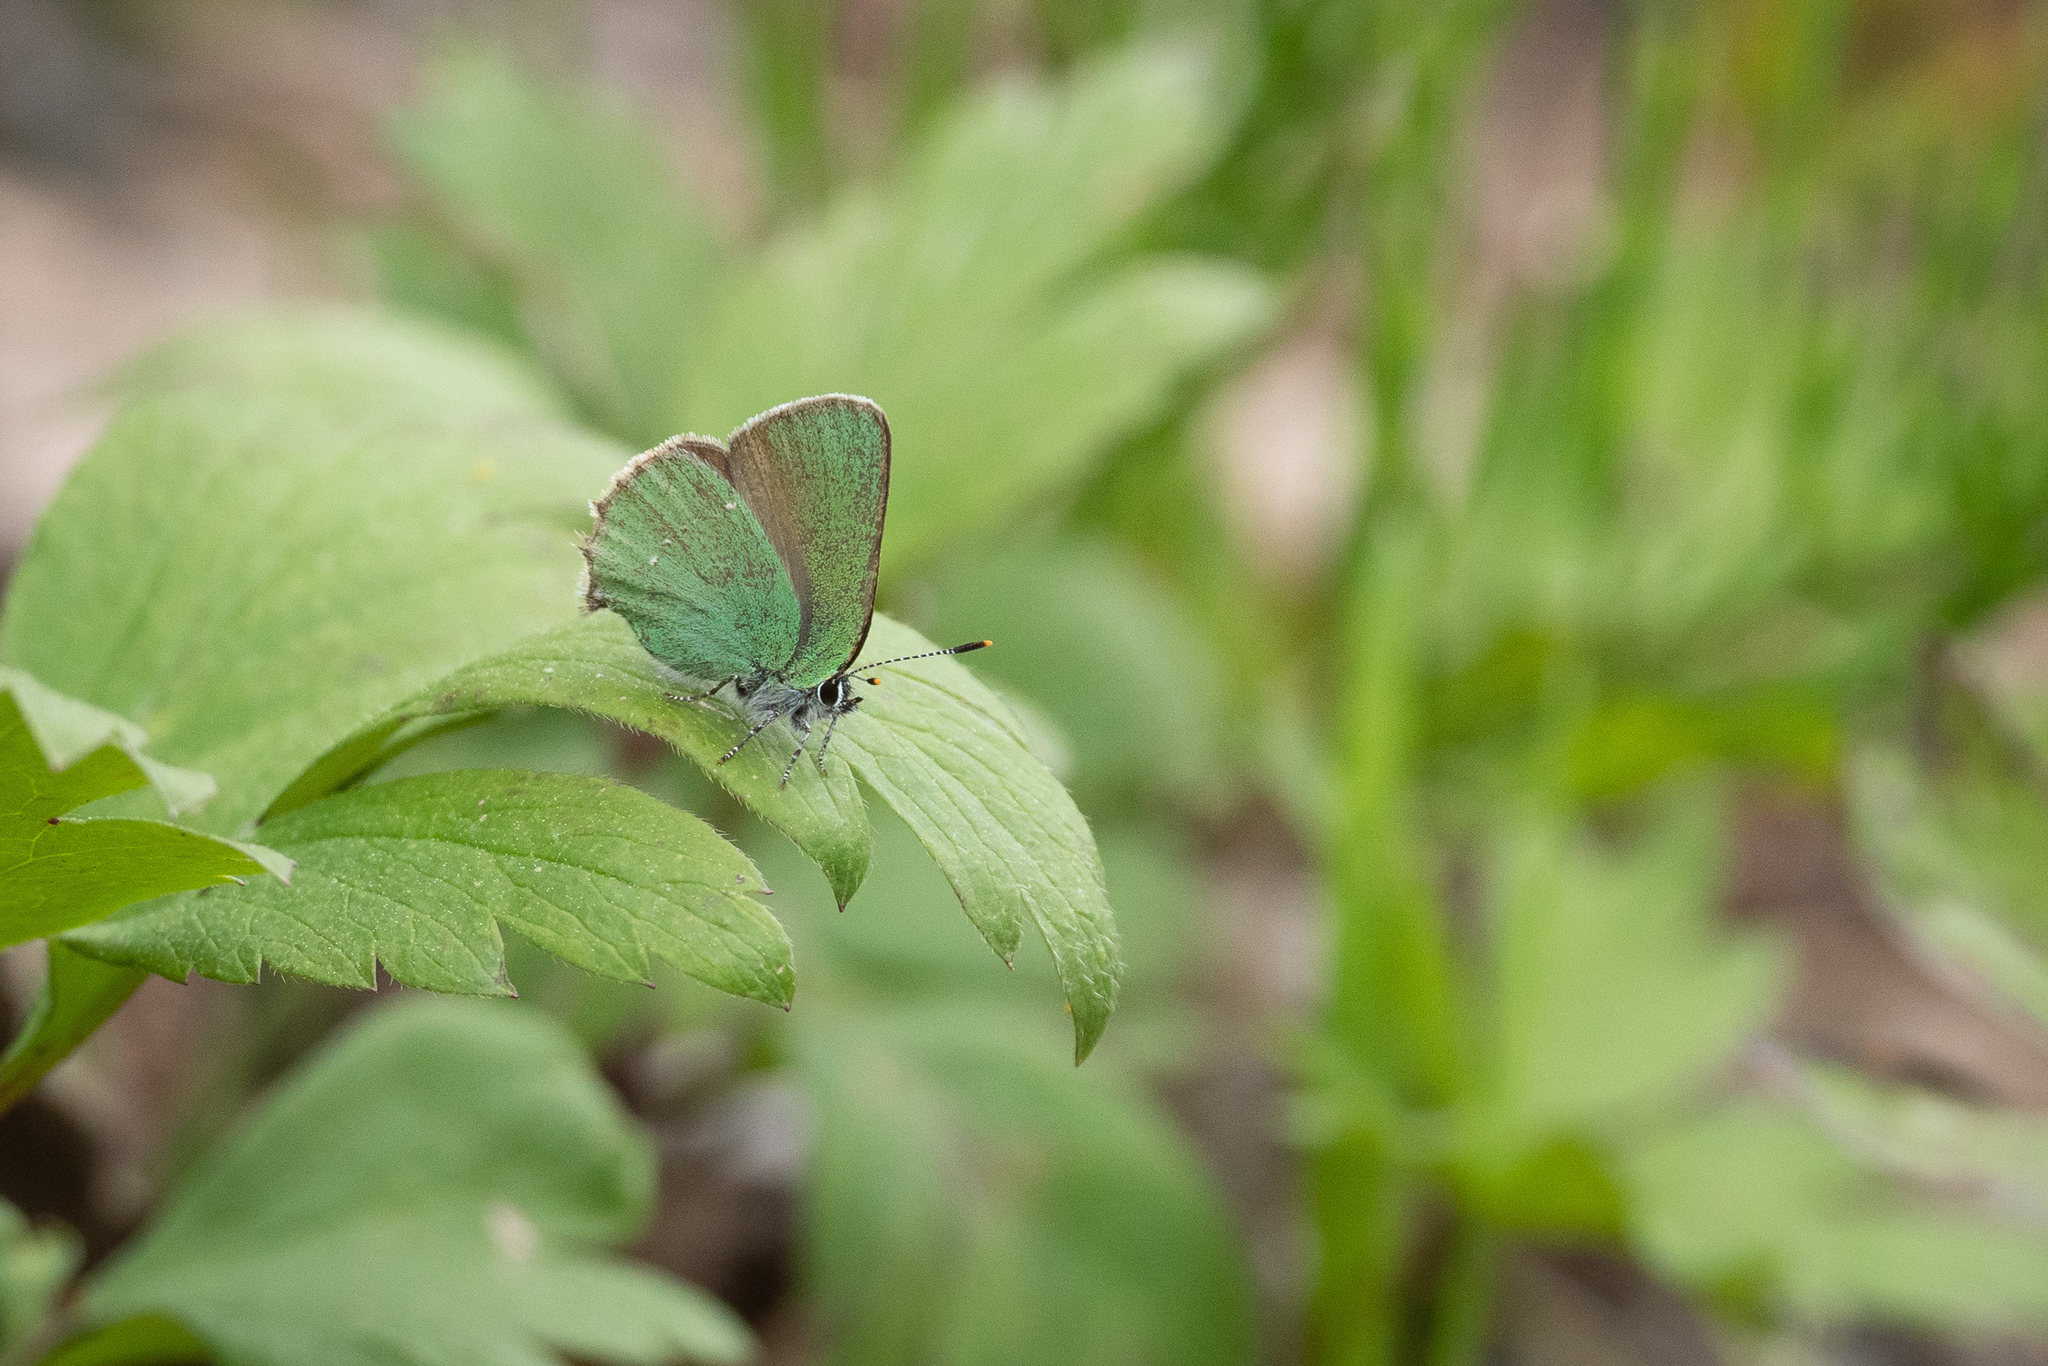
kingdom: Animalia
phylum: Arthropoda
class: Insecta
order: Lepidoptera
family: Lycaenidae
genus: Callophrys
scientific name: Callophrys rubi
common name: Green hairstreak
